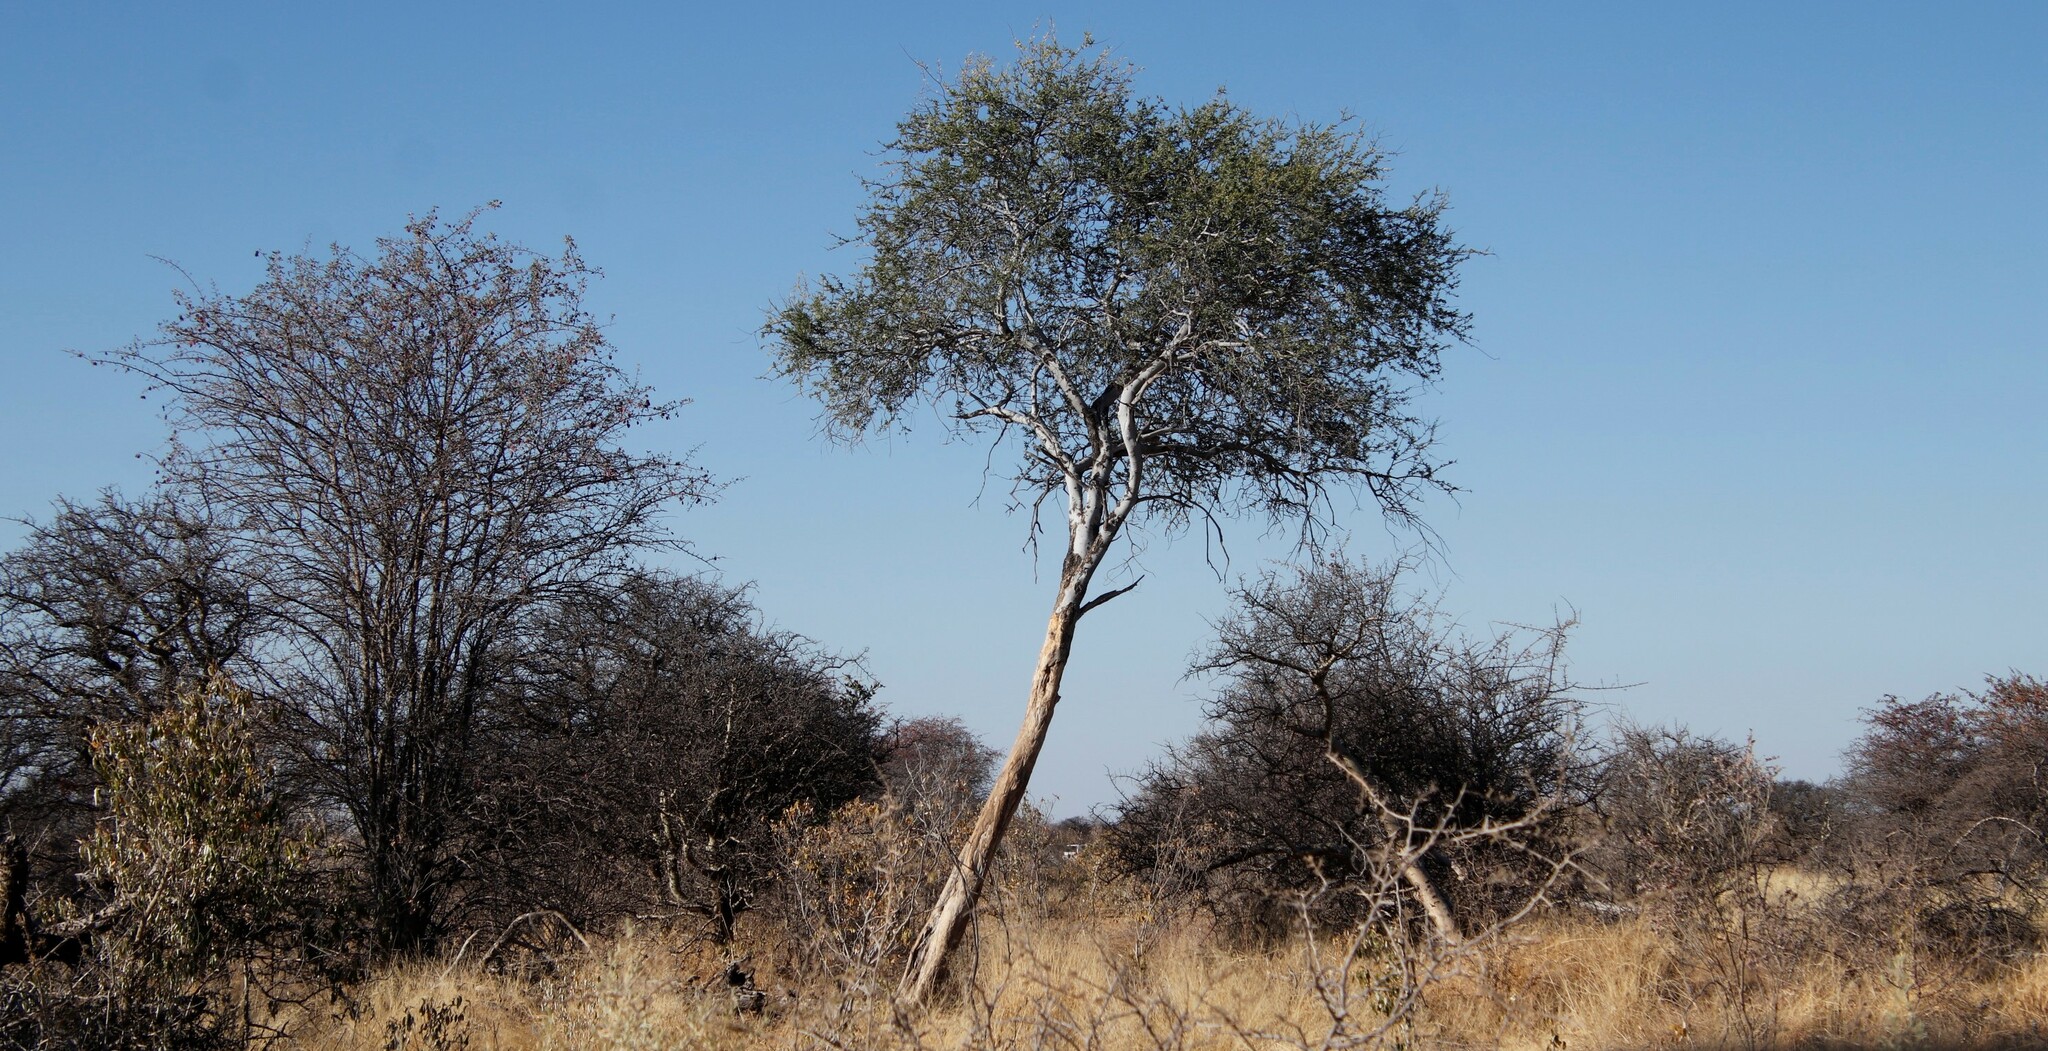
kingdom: Plantae
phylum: Tracheophyta
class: Magnoliopsida
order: Brassicales
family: Capparaceae
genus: Boscia
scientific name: Boscia albitrunca
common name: Caper bush
